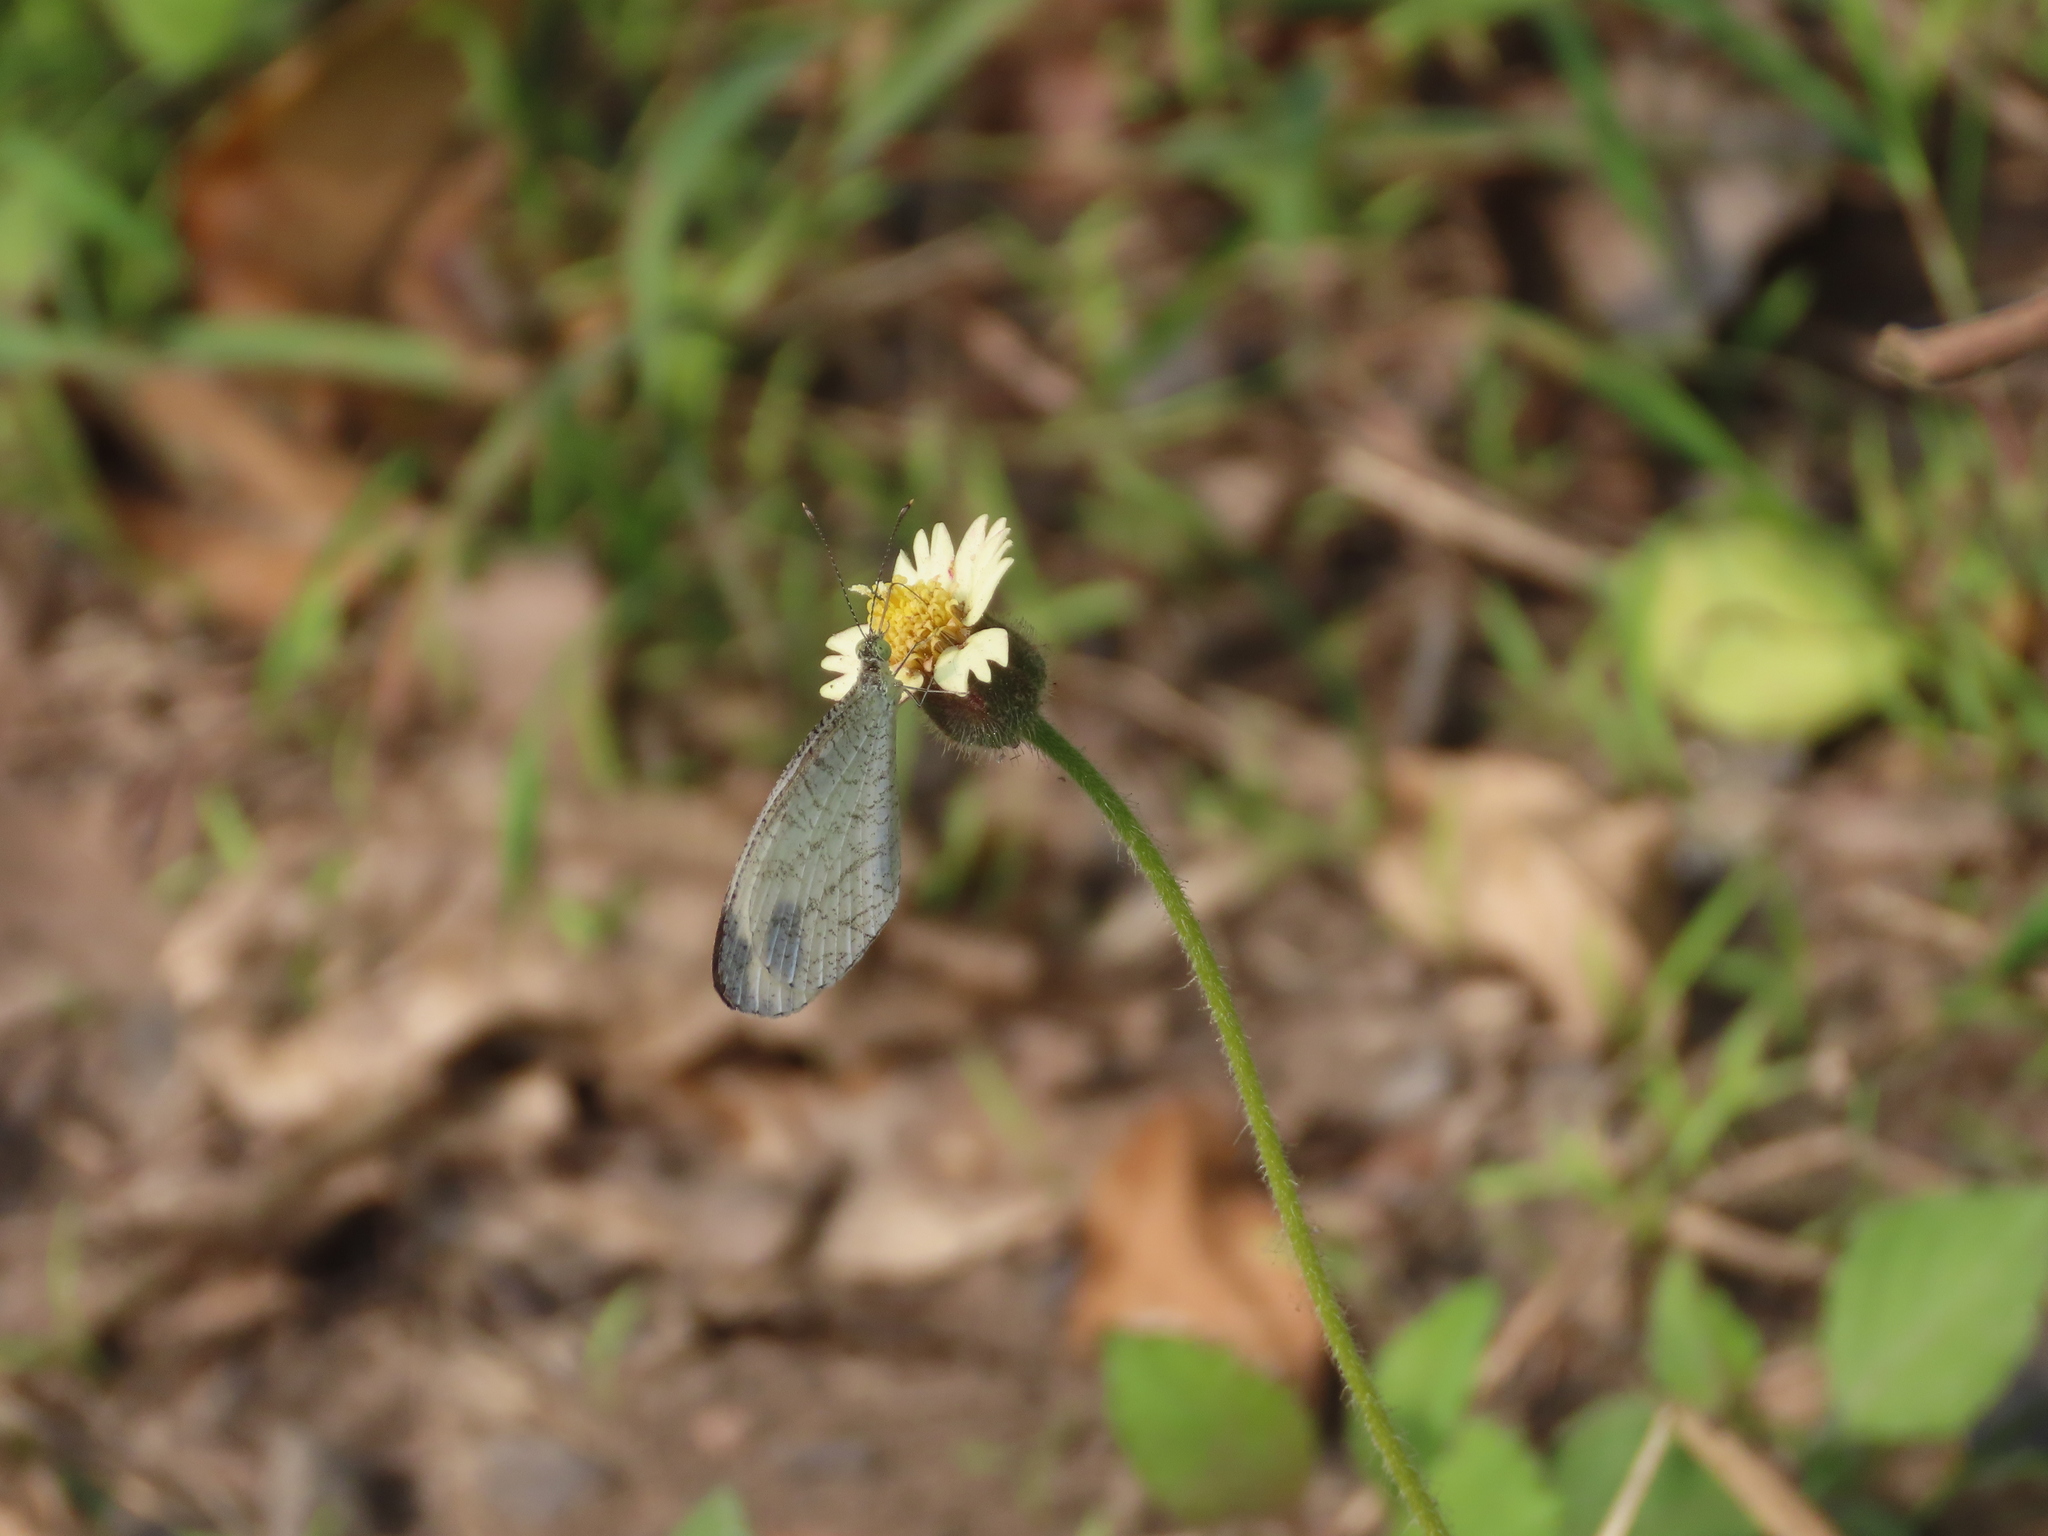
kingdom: Animalia
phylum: Arthropoda
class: Insecta
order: Lepidoptera
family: Pieridae
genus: Leptosia
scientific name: Leptosia nina
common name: Psyche
